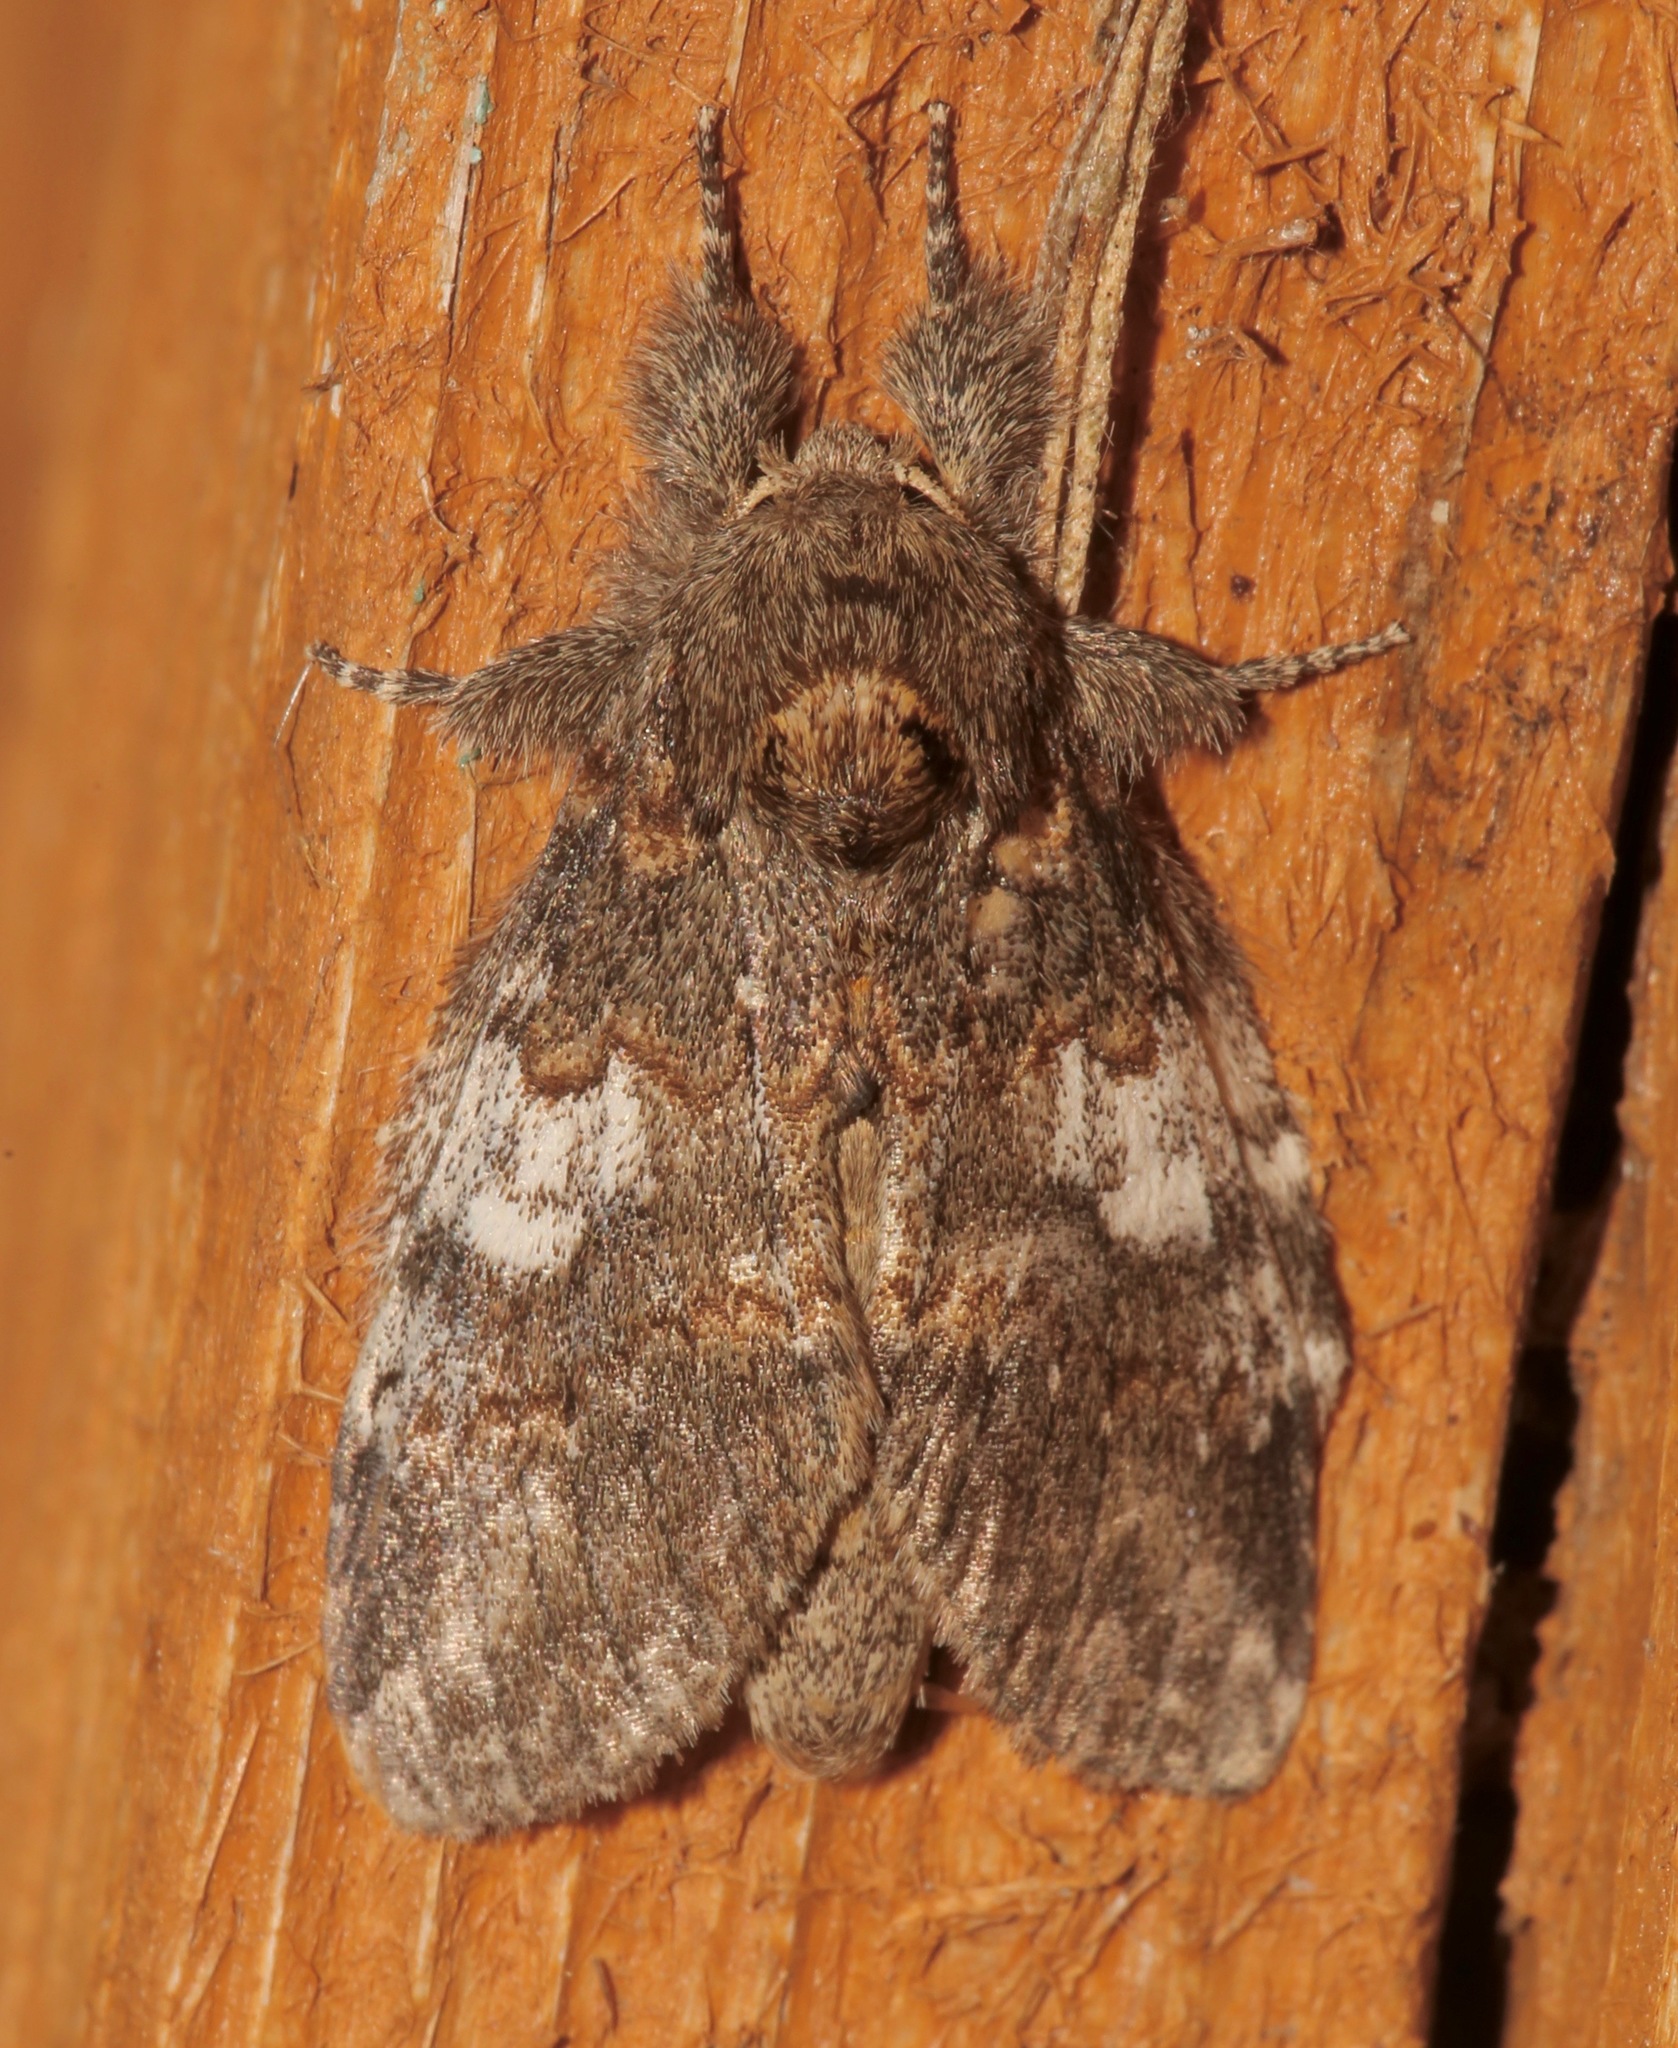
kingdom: Animalia
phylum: Arthropoda
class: Insecta
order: Lepidoptera
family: Notodontidae
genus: Peridea
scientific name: Peridea angulosa
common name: Angulose prominent
